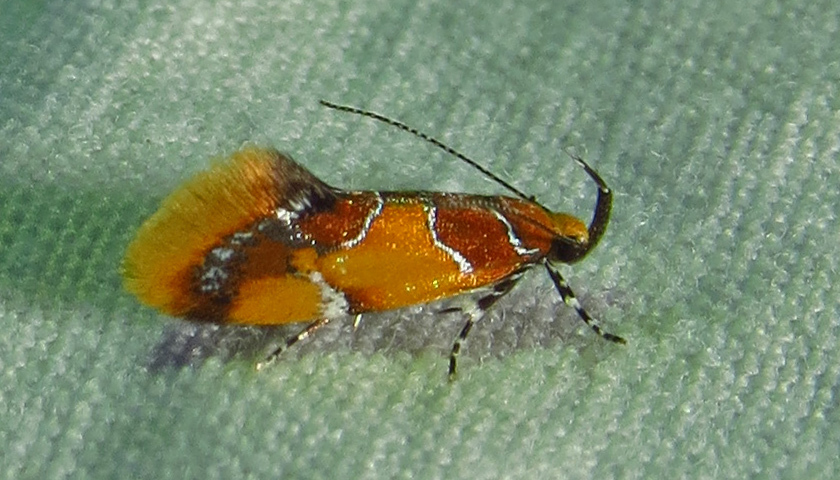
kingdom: Animalia
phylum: Arthropoda
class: Insecta
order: Lepidoptera
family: Oecophoridae
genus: Callima
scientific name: Callima argenticinctella
